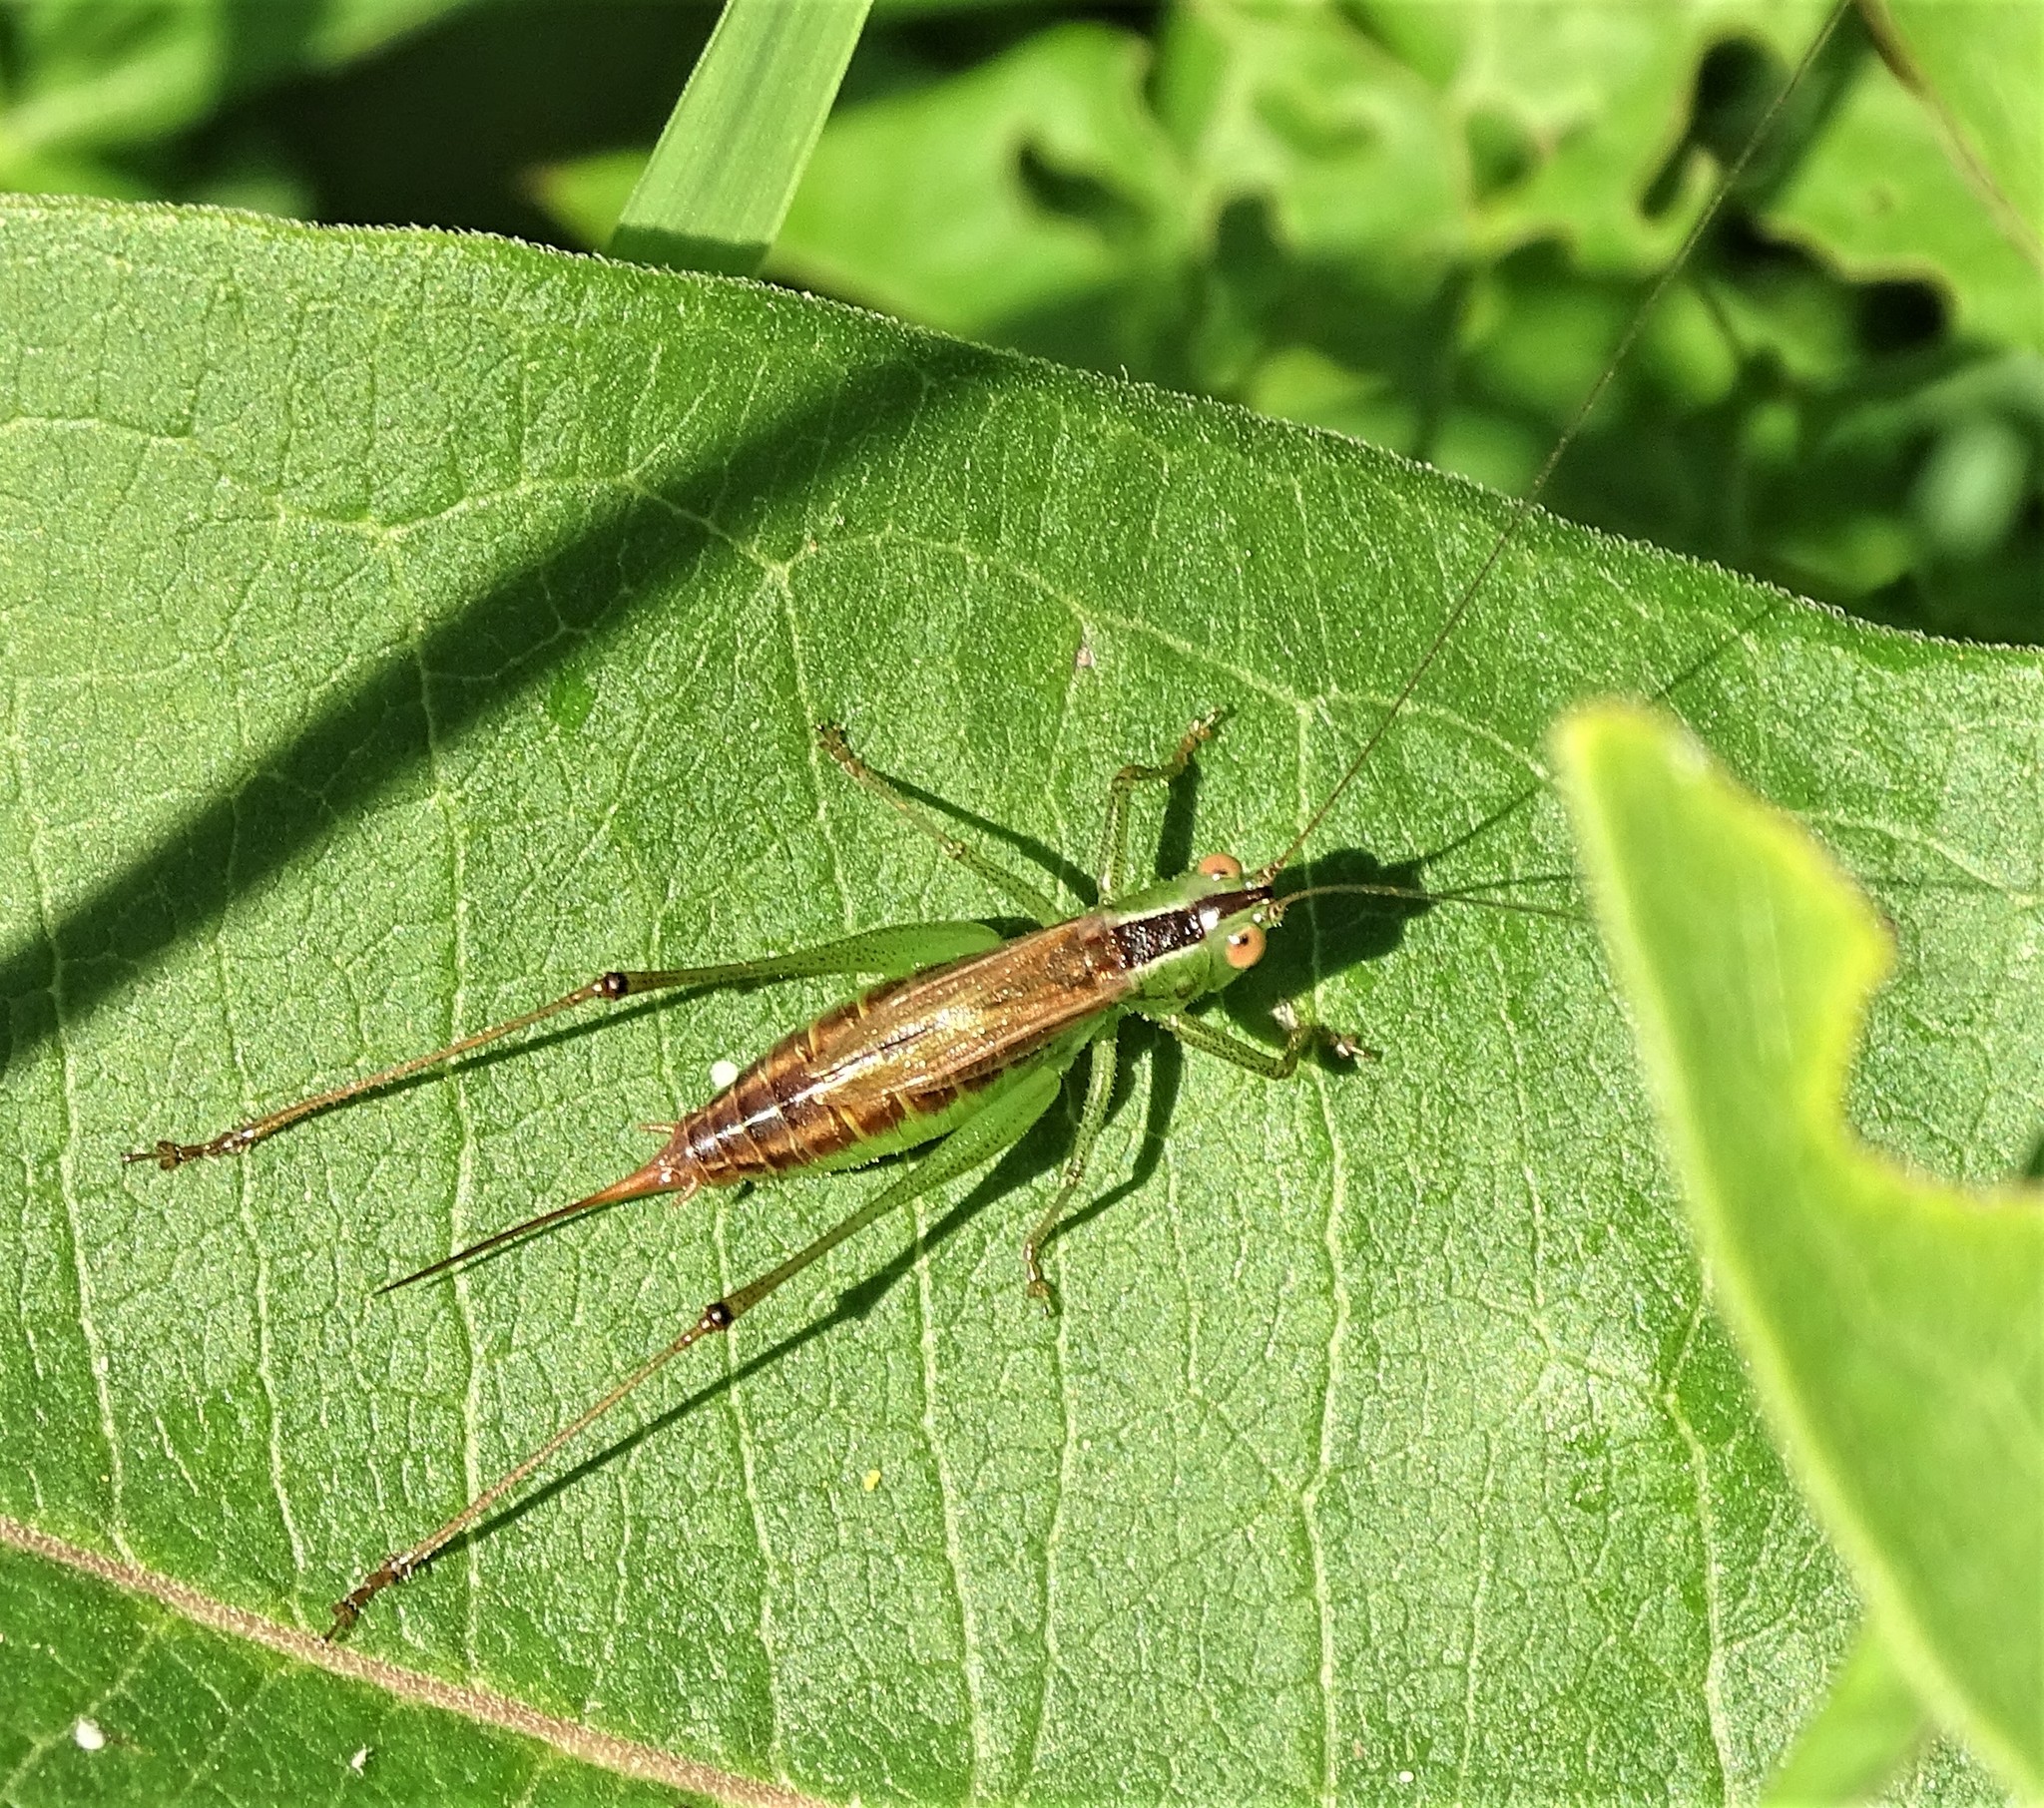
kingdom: Animalia
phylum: Arthropoda
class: Insecta
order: Orthoptera
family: Tettigoniidae
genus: Conocephalus
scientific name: Conocephalus brevipennis
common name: Short-winged meadow katydid
